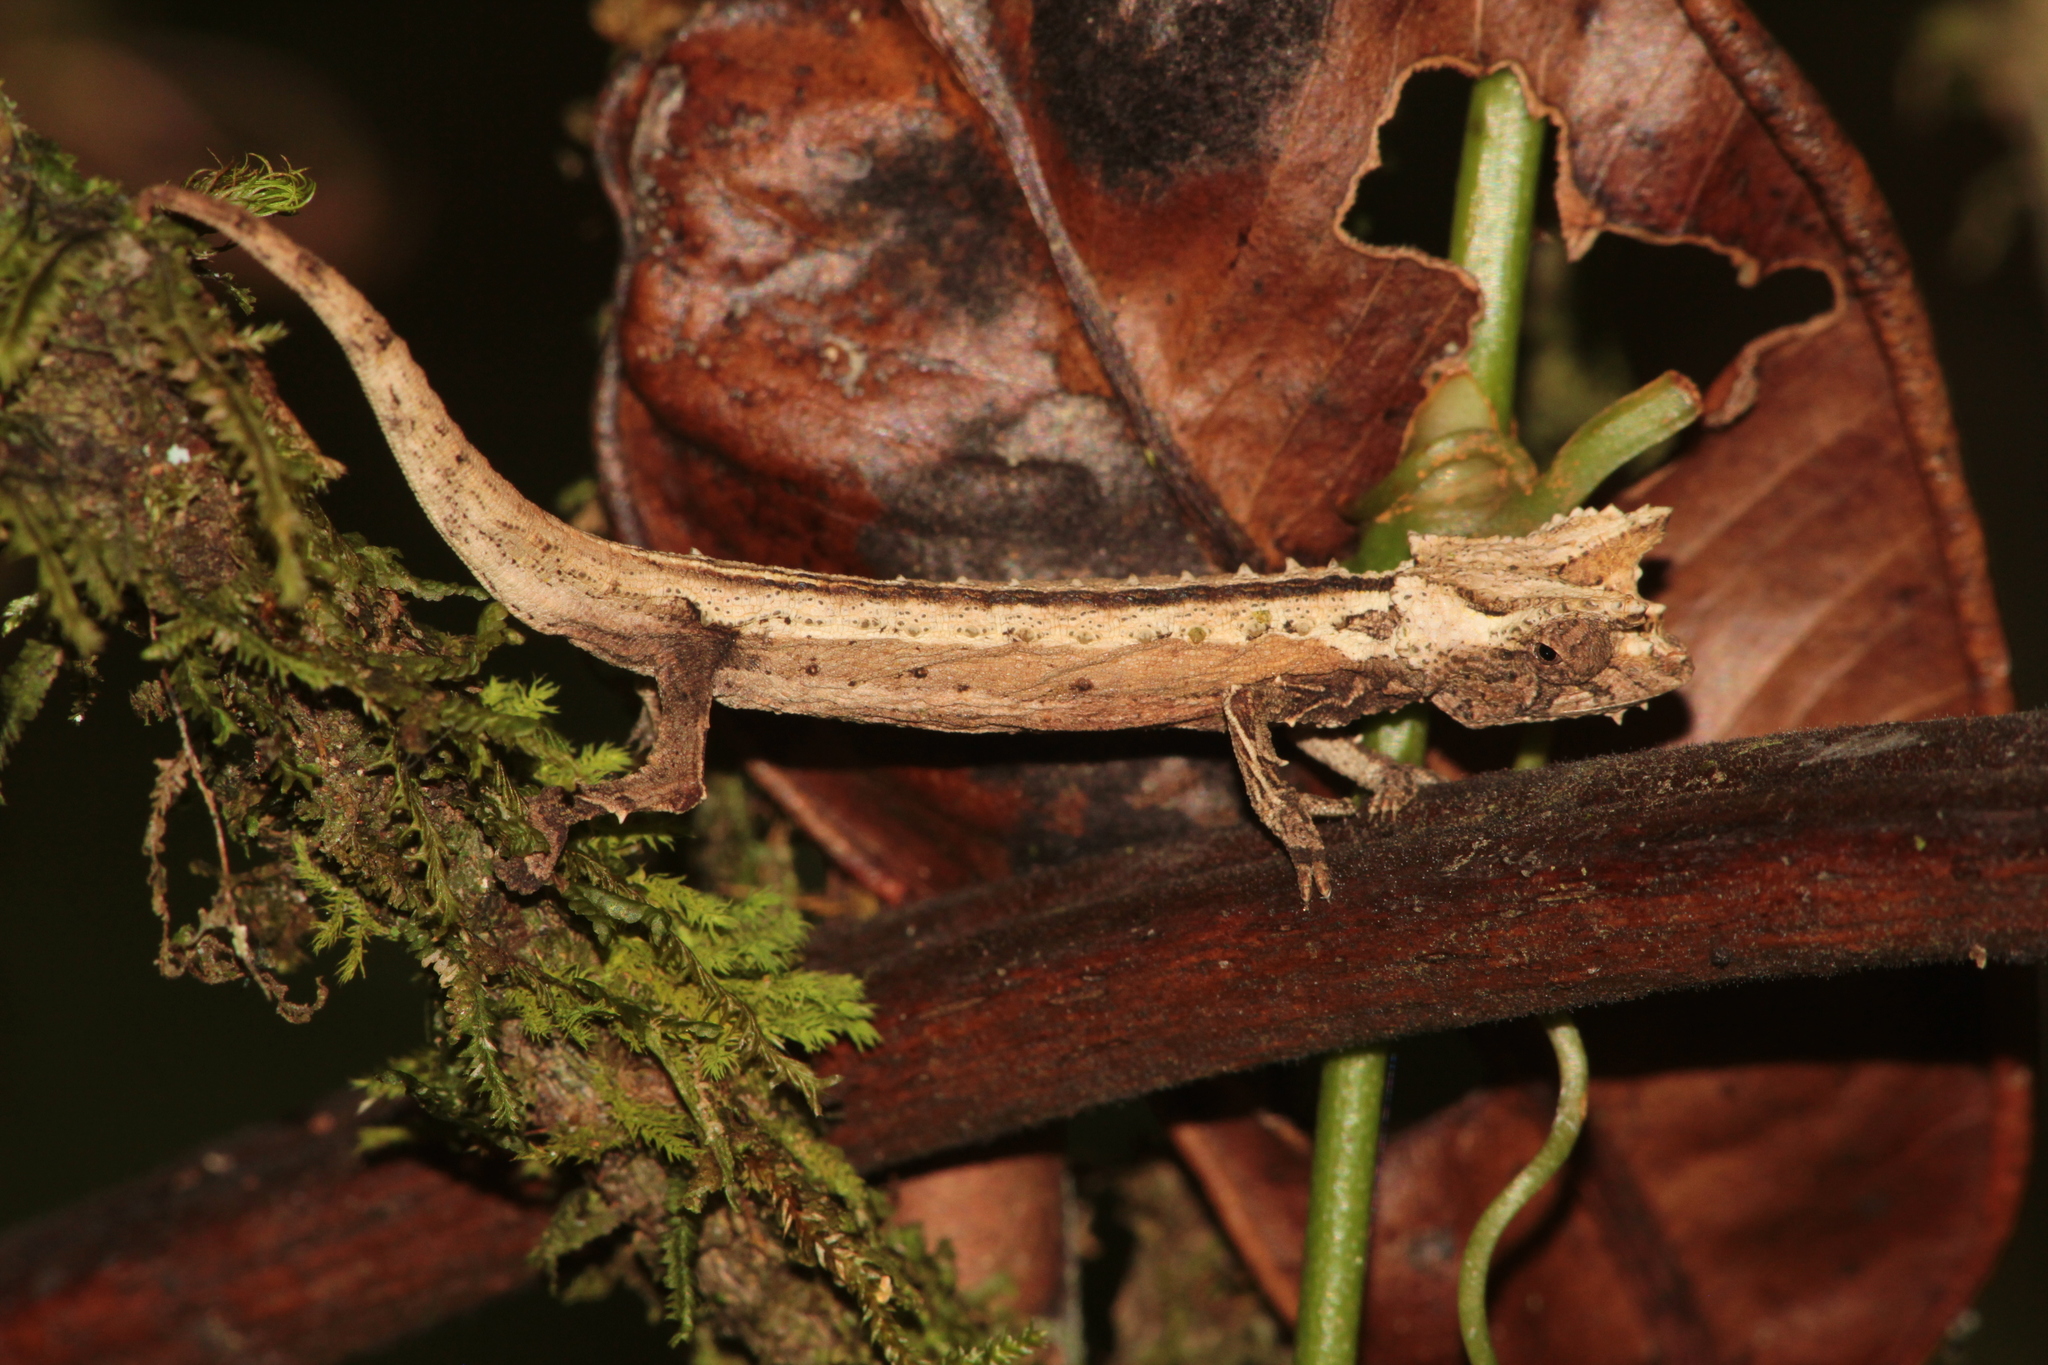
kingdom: Animalia
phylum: Chordata
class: Squamata
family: Chamaeleonidae
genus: Brookesia
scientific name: Brookesia thieli
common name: Domergue's leaf chameleon
